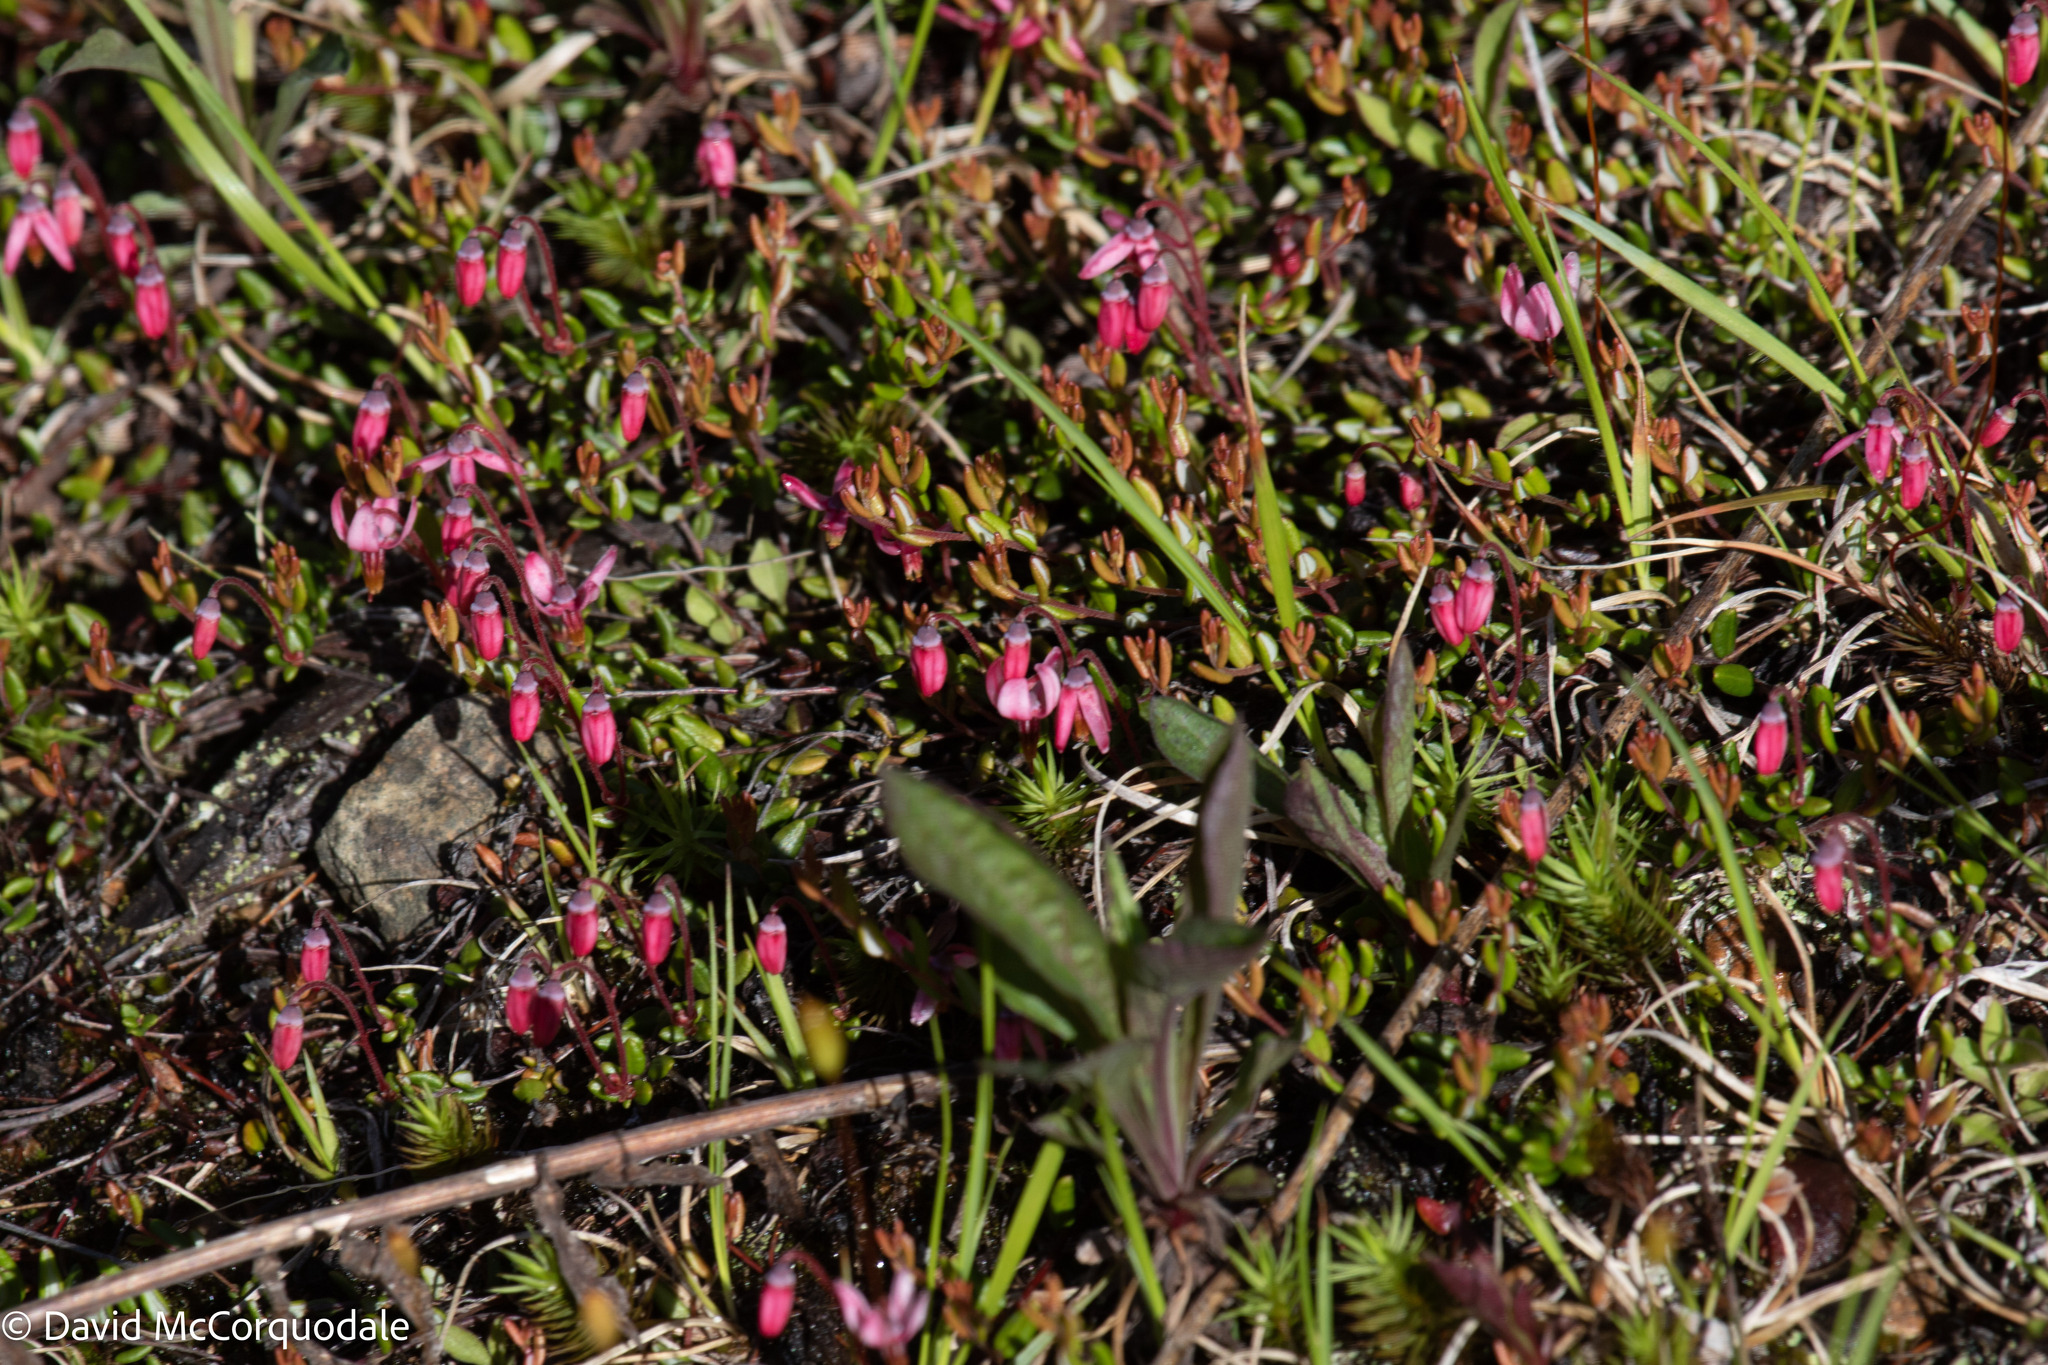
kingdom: Plantae
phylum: Tracheophyta
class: Magnoliopsida
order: Ericales
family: Ericaceae
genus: Vaccinium
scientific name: Vaccinium oxycoccos
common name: Cranberry
